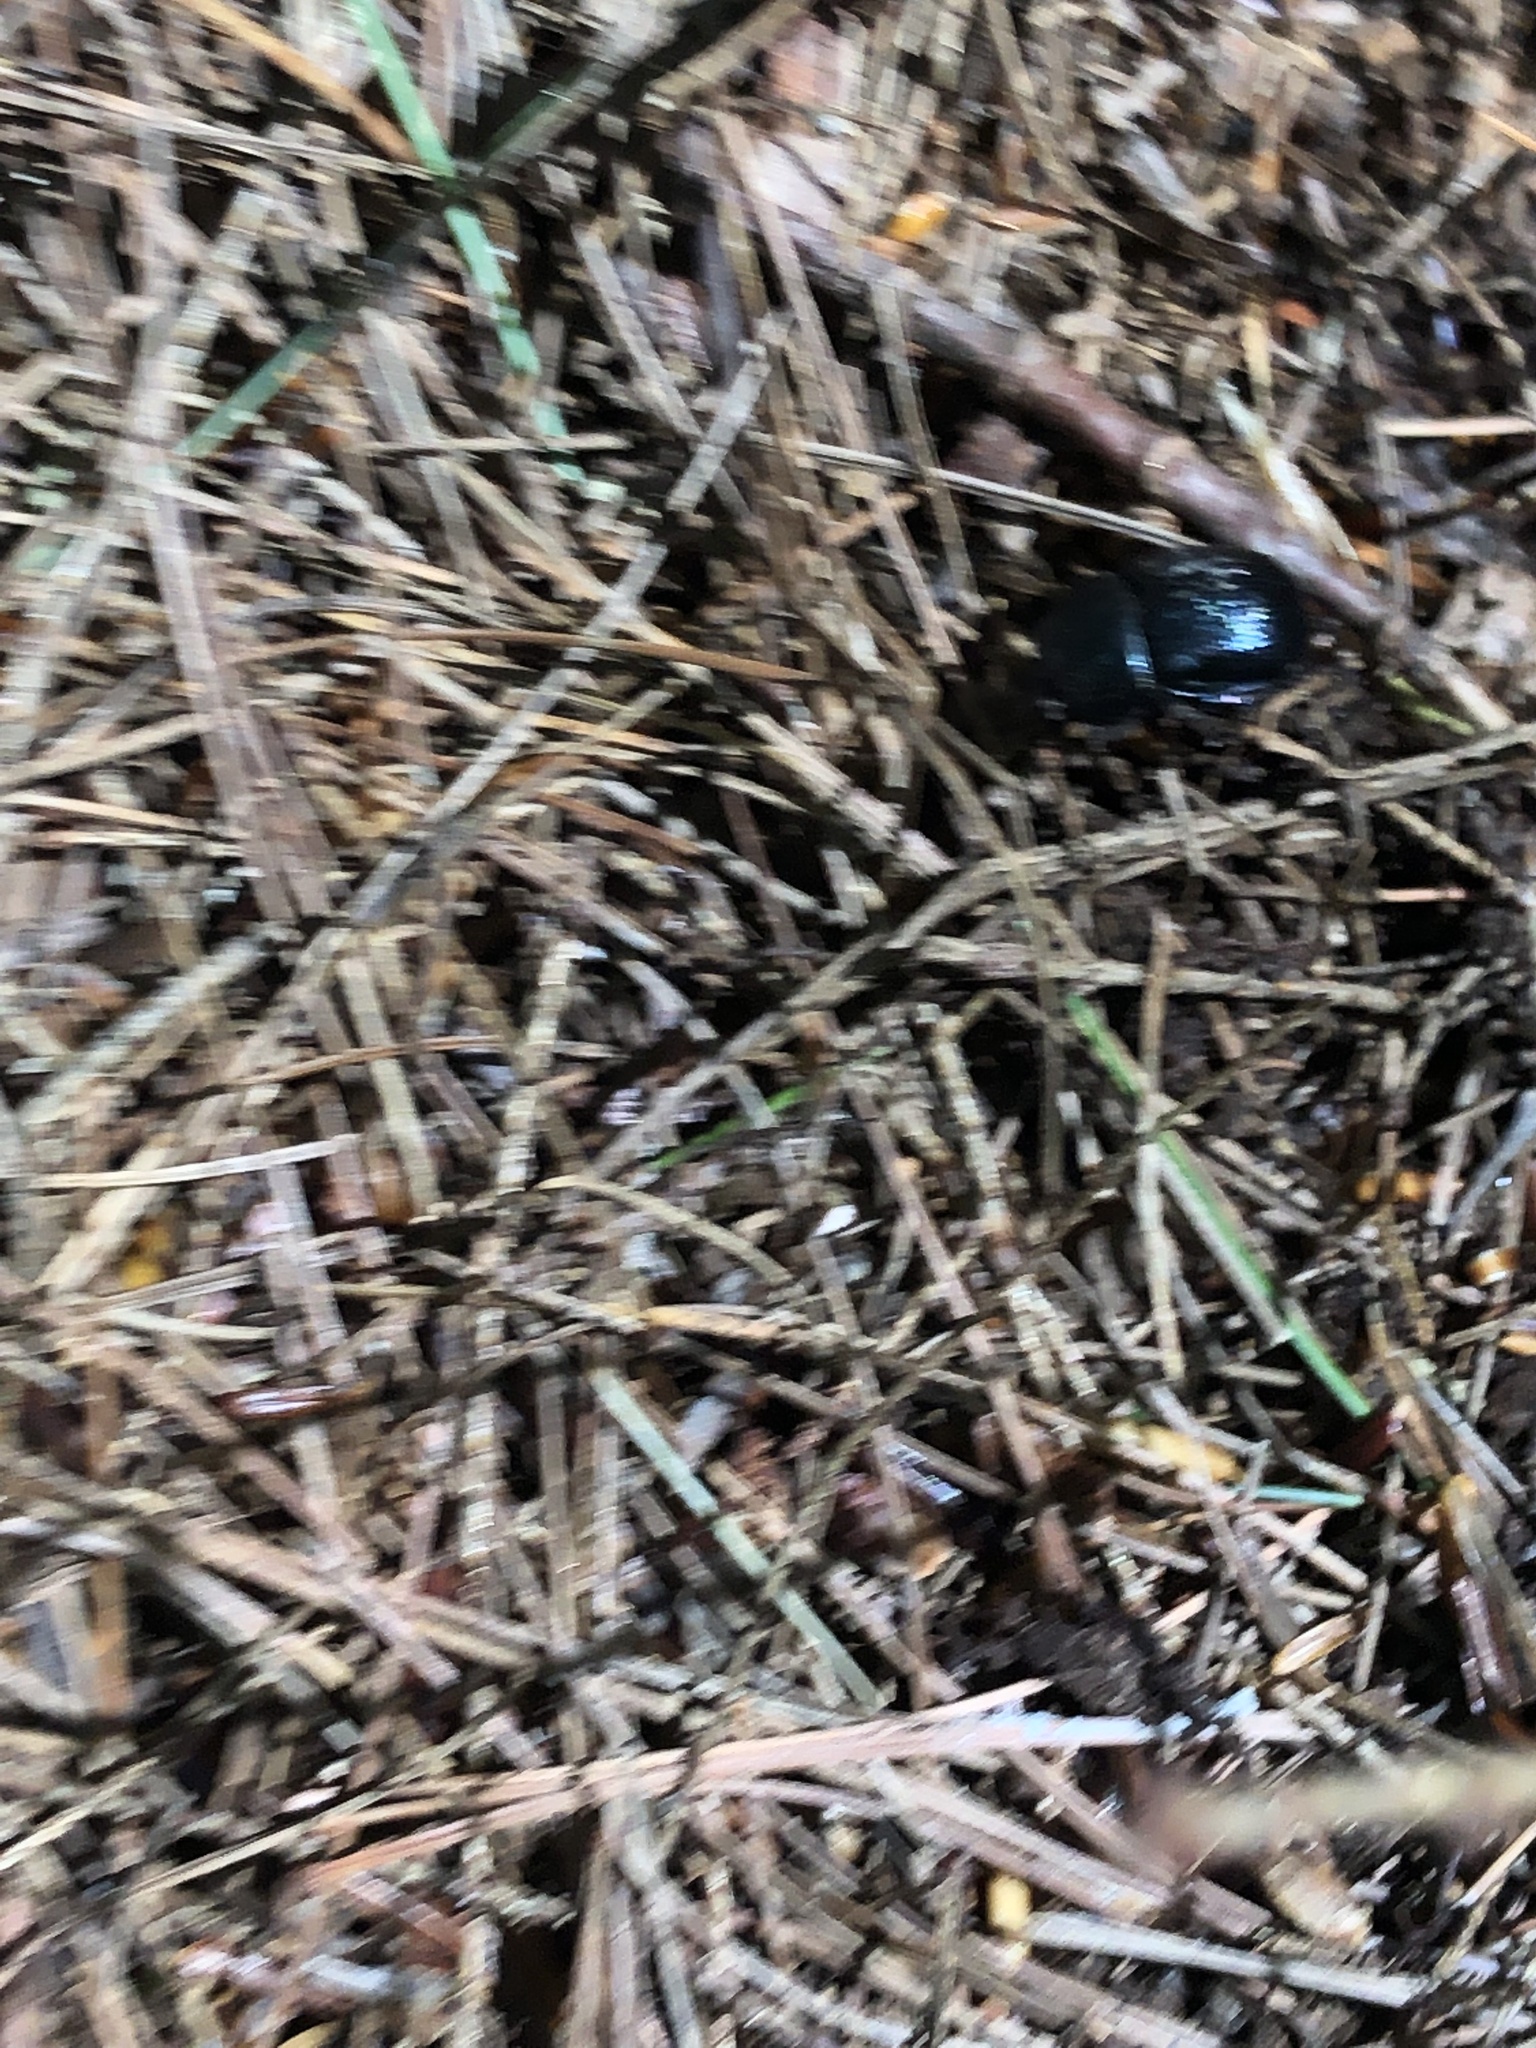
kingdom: Animalia
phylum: Arthropoda
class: Insecta
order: Coleoptera
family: Geotrupidae
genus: Anoplotrupes
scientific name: Anoplotrupes balyi
